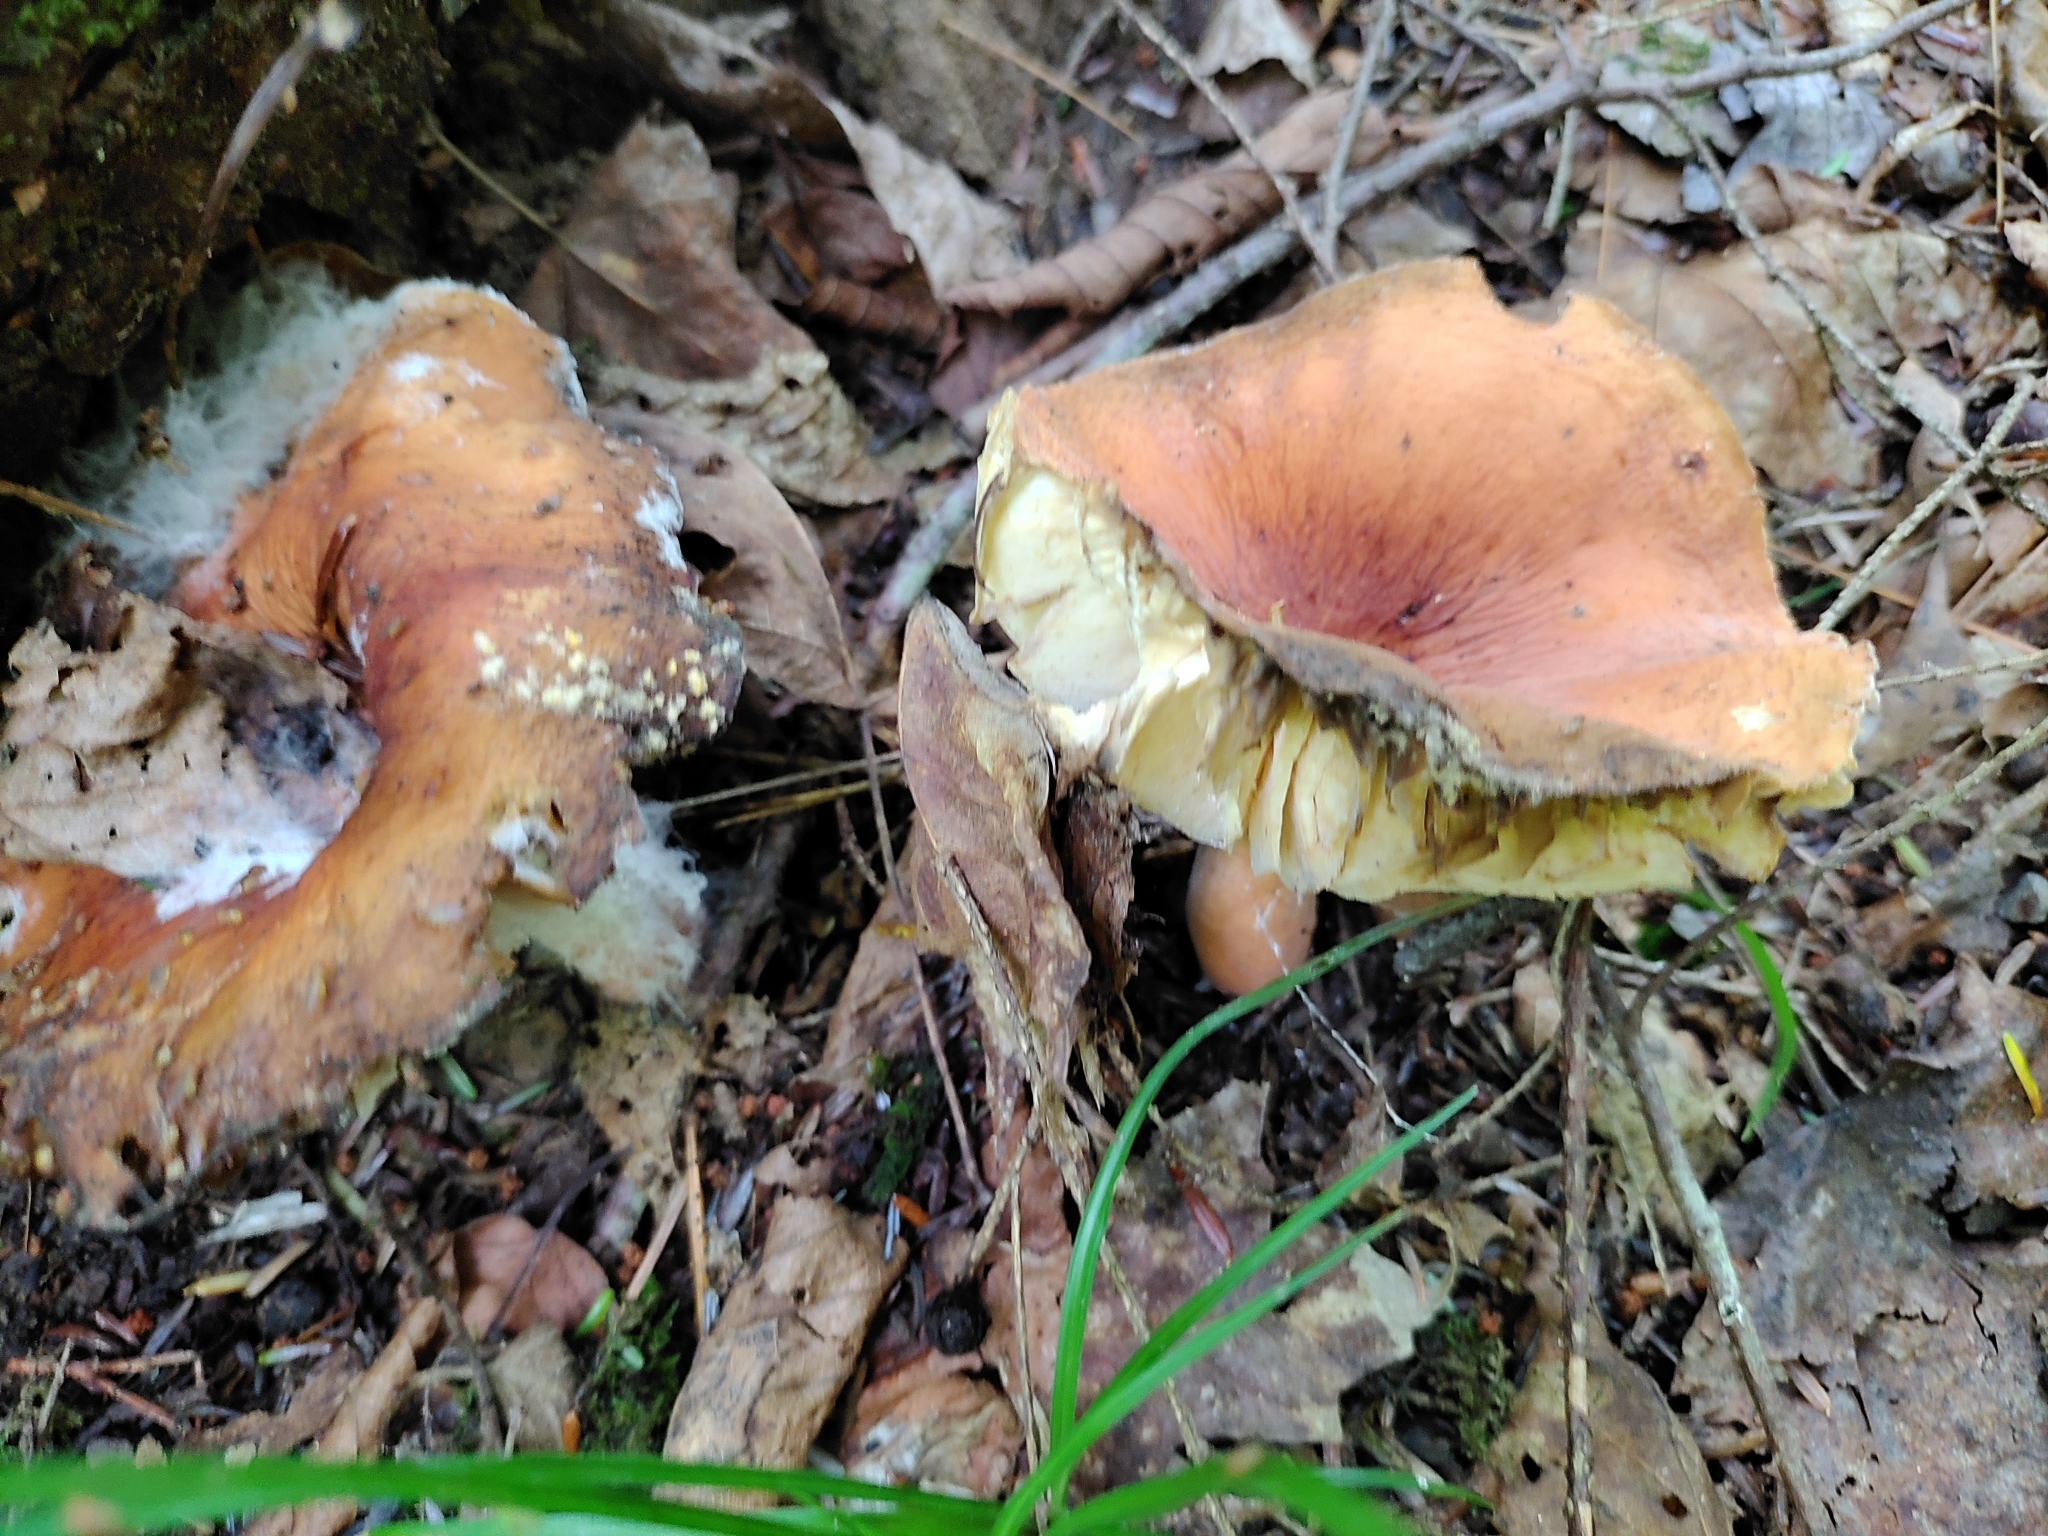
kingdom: Fungi
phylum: Basidiomycota
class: Agaricomycetes
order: Russulales
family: Russulaceae
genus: Lactarius
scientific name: Lactarius hygrophoroides
